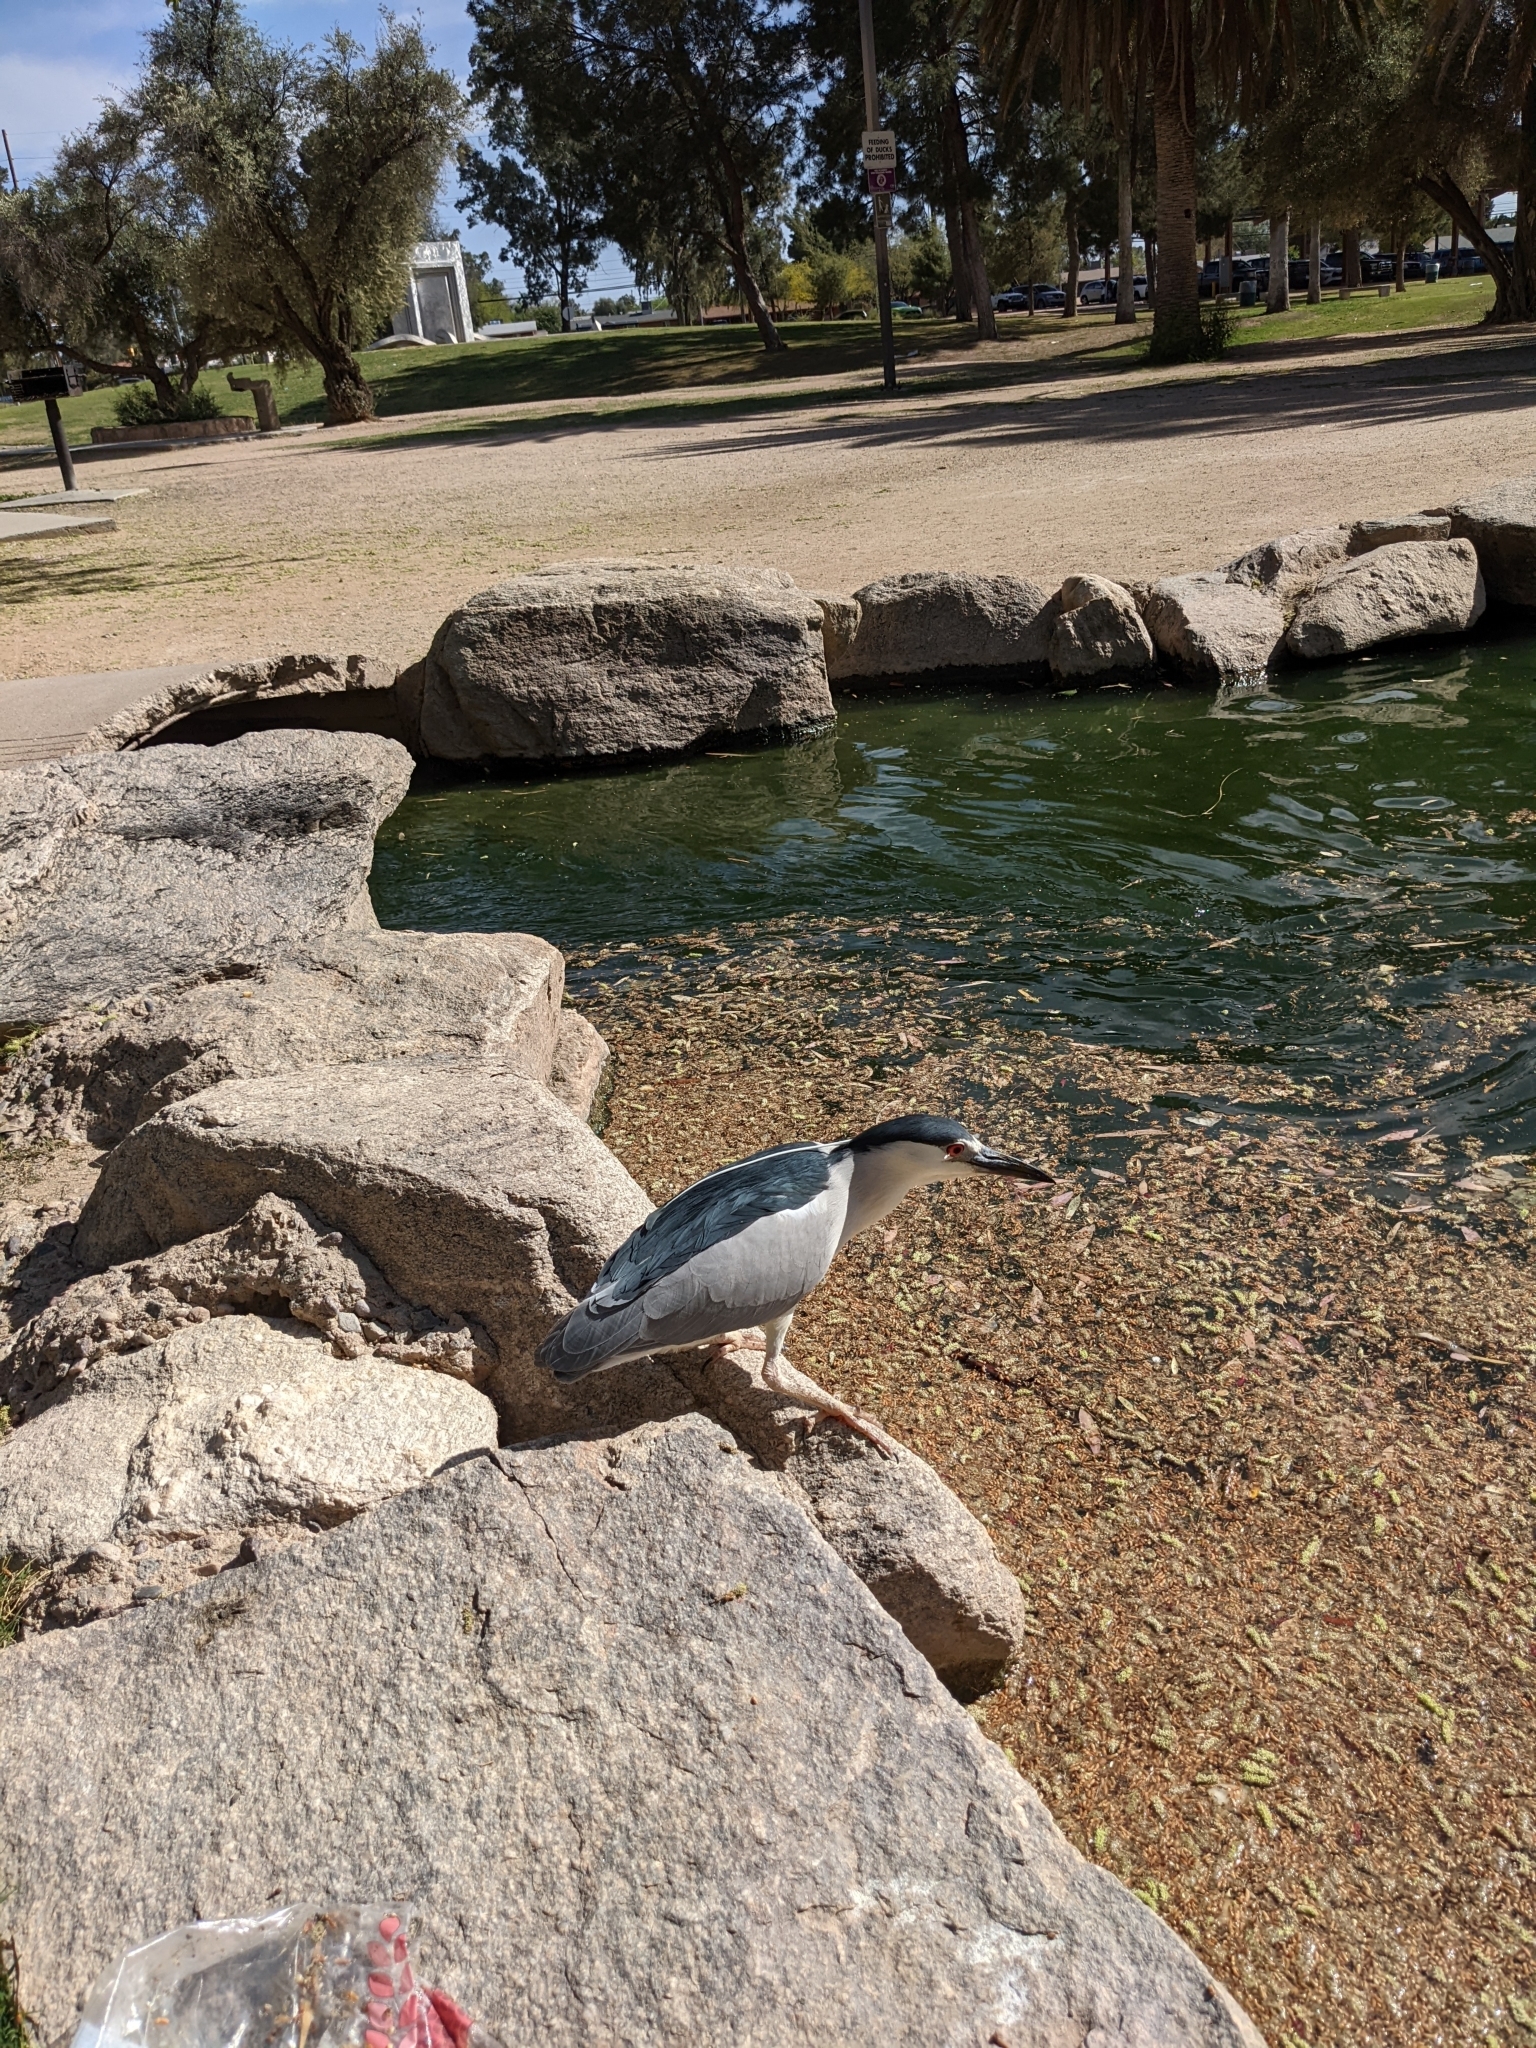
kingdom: Animalia
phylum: Chordata
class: Aves
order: Pelecaniformes
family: Ardeidae
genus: Nycticorax
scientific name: Nycticorax nycticorax
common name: Black-crowned night heron
